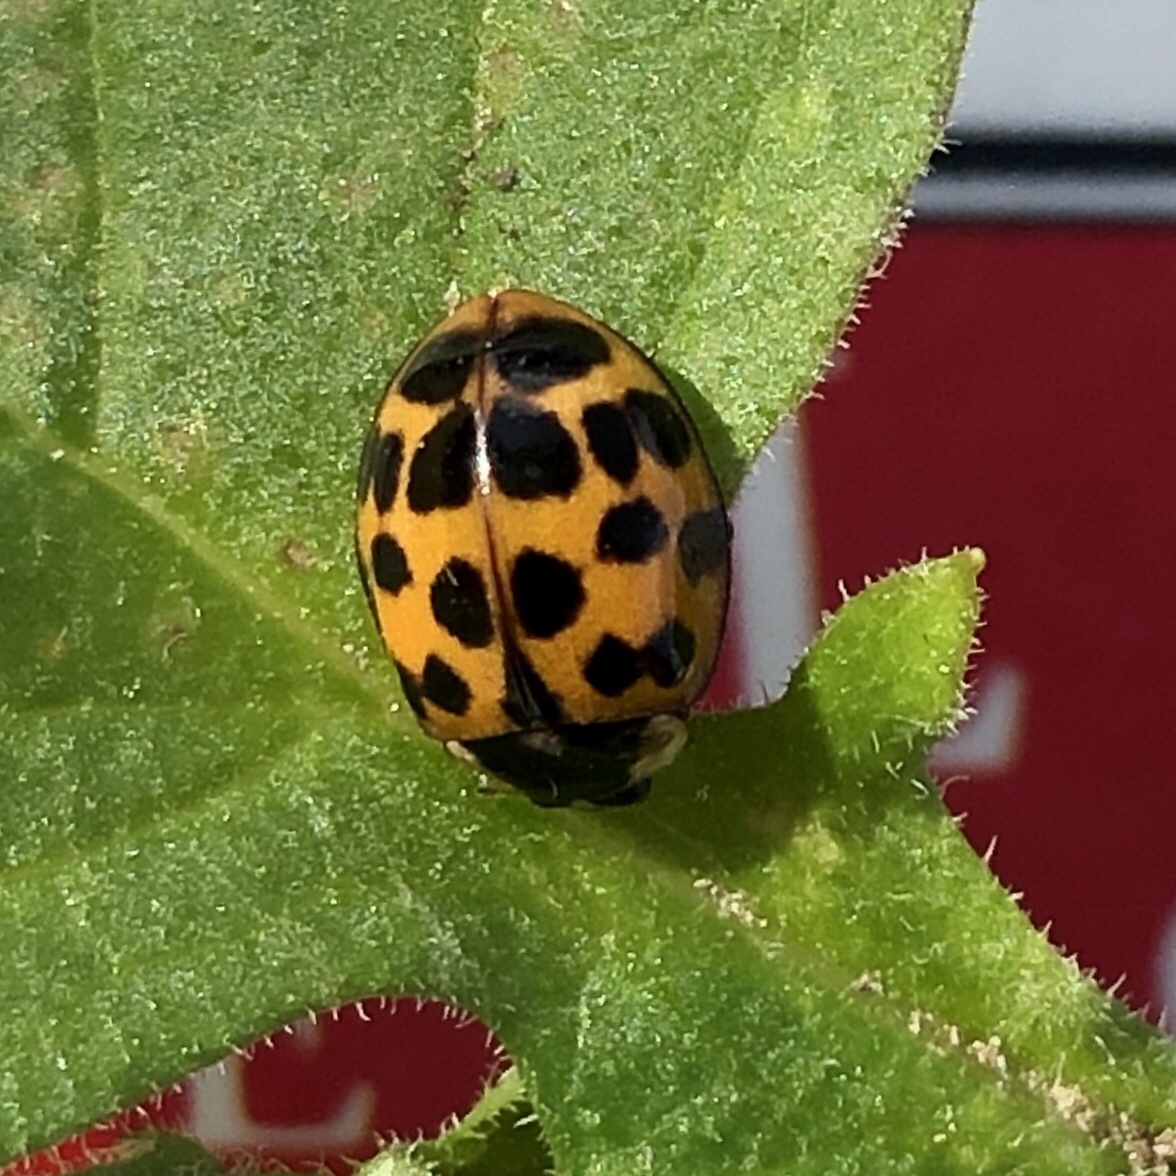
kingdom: Animalia
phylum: Arthropoda
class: Insecta
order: Coleoptera
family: Coccinellidae
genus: Harmonia
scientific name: Harmonia axyridis
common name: Harlequin ladybird
